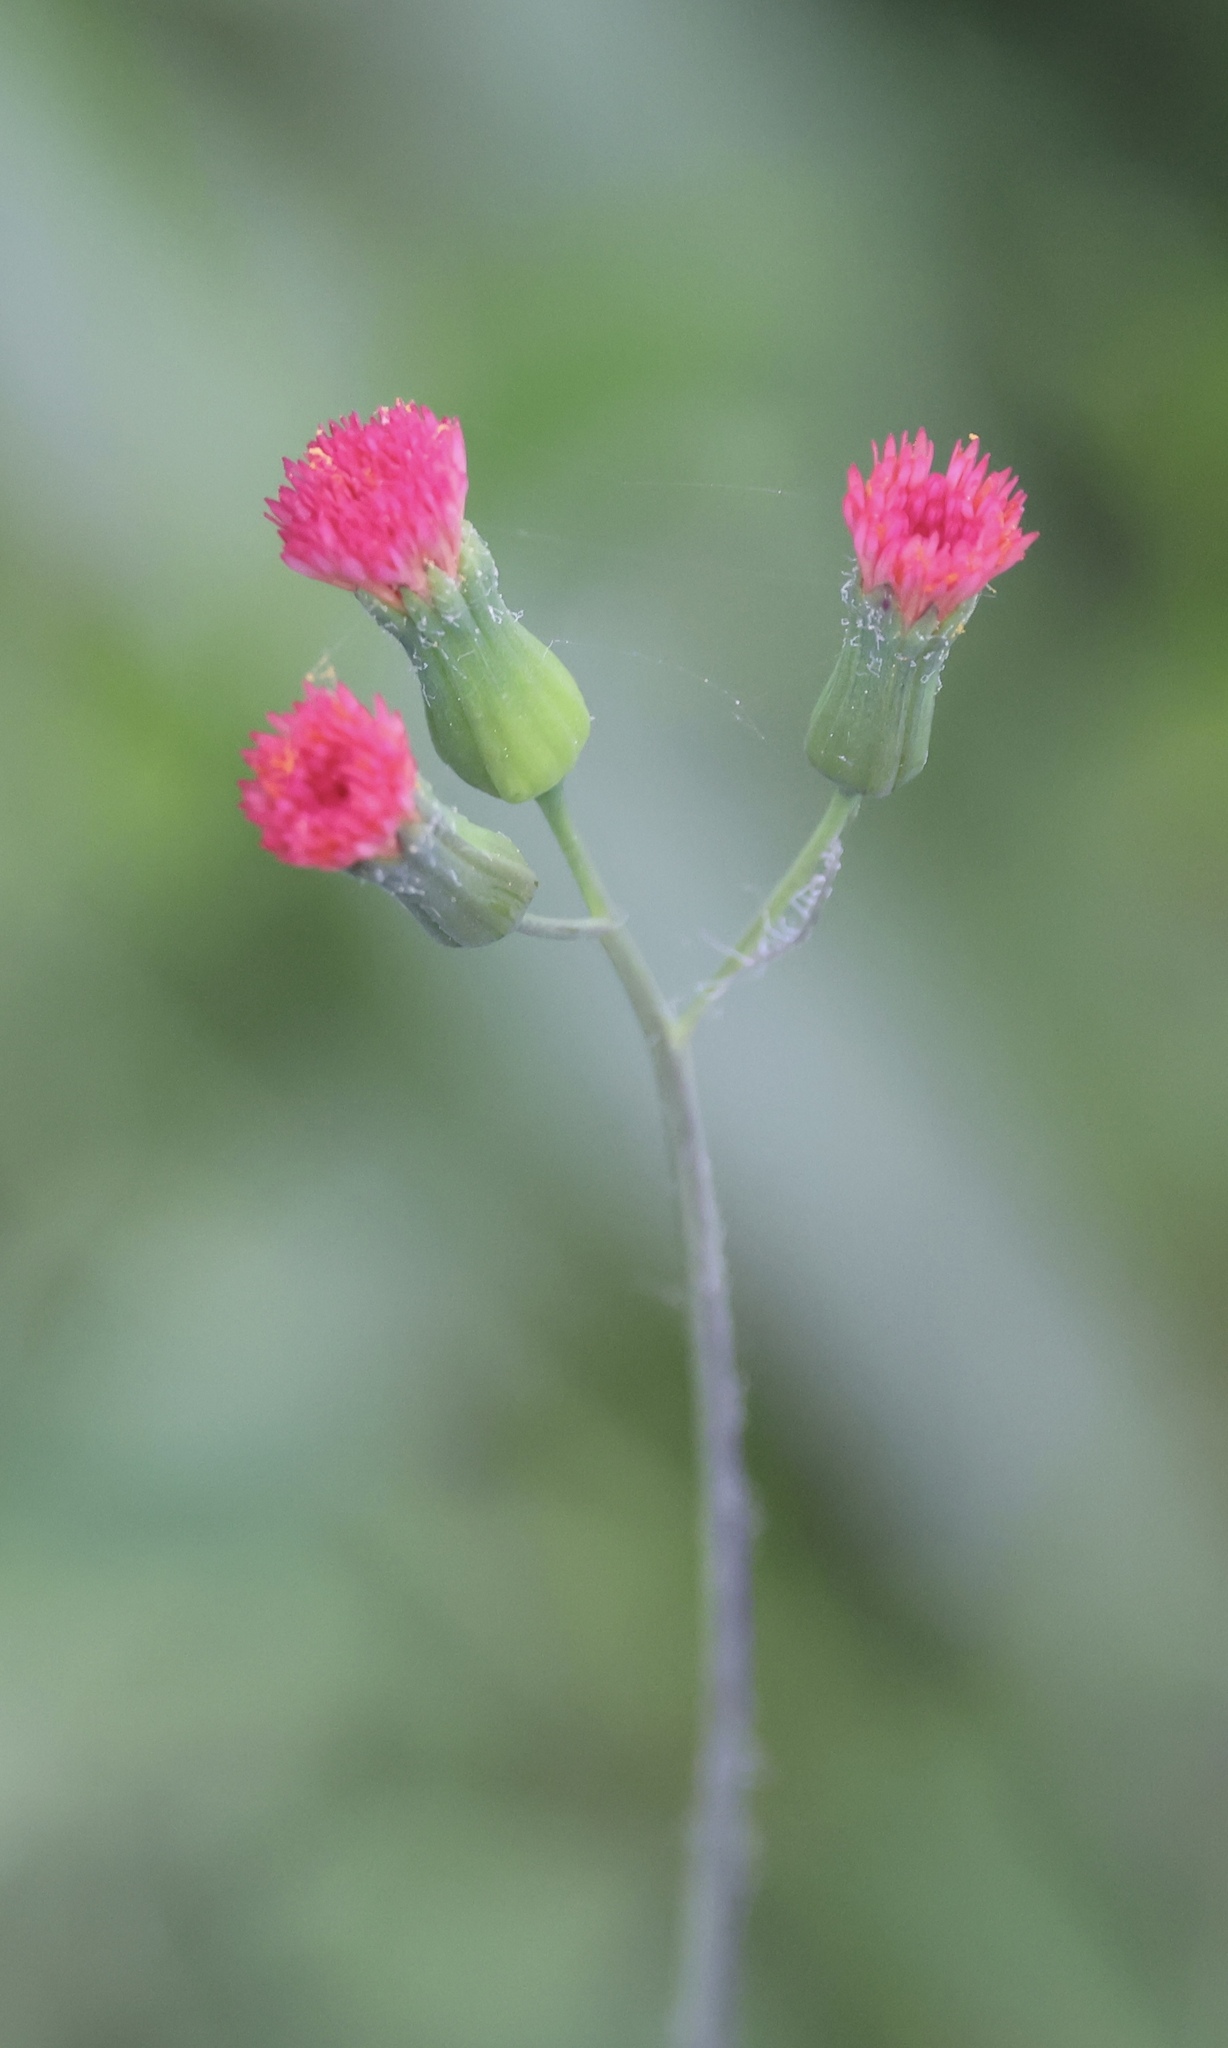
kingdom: Plantae
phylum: Tracheophyta
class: Magnoliopsida
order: Asterales
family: Asteraceae
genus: Emilia
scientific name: Emilia fosbergii
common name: Florida tasselflower
